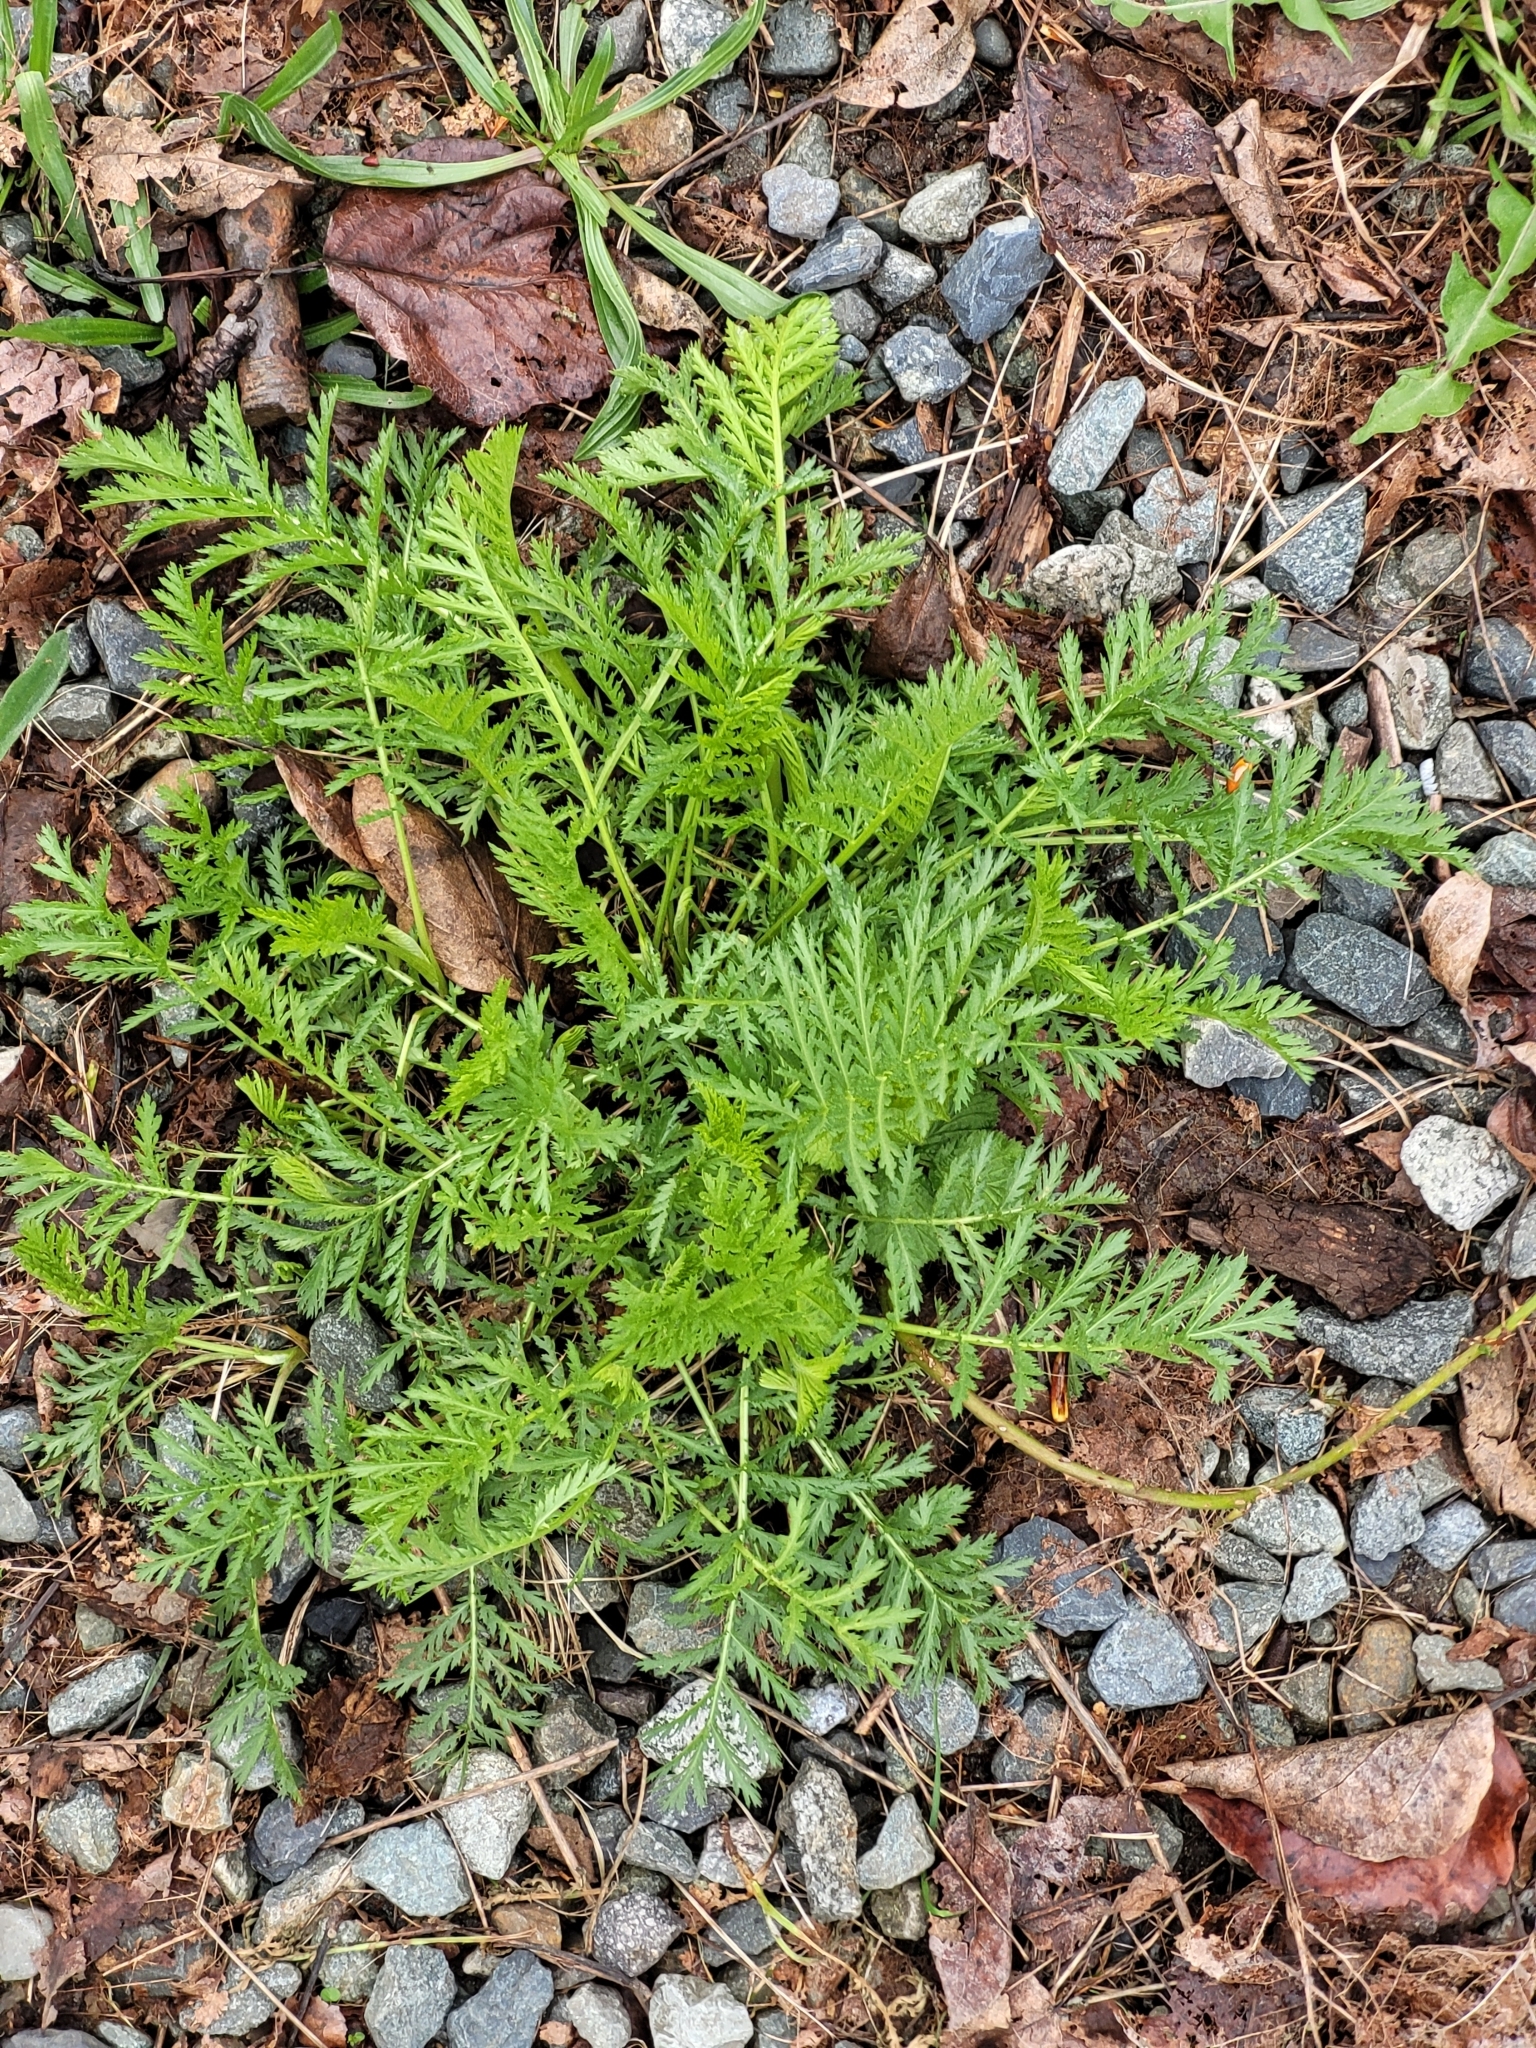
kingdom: Plantae
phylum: Tracheophyta
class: Magnoliopsida
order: Asterales
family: Asteraceae
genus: Tanacetum
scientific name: Tanacetum vulgare
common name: Common tansy
